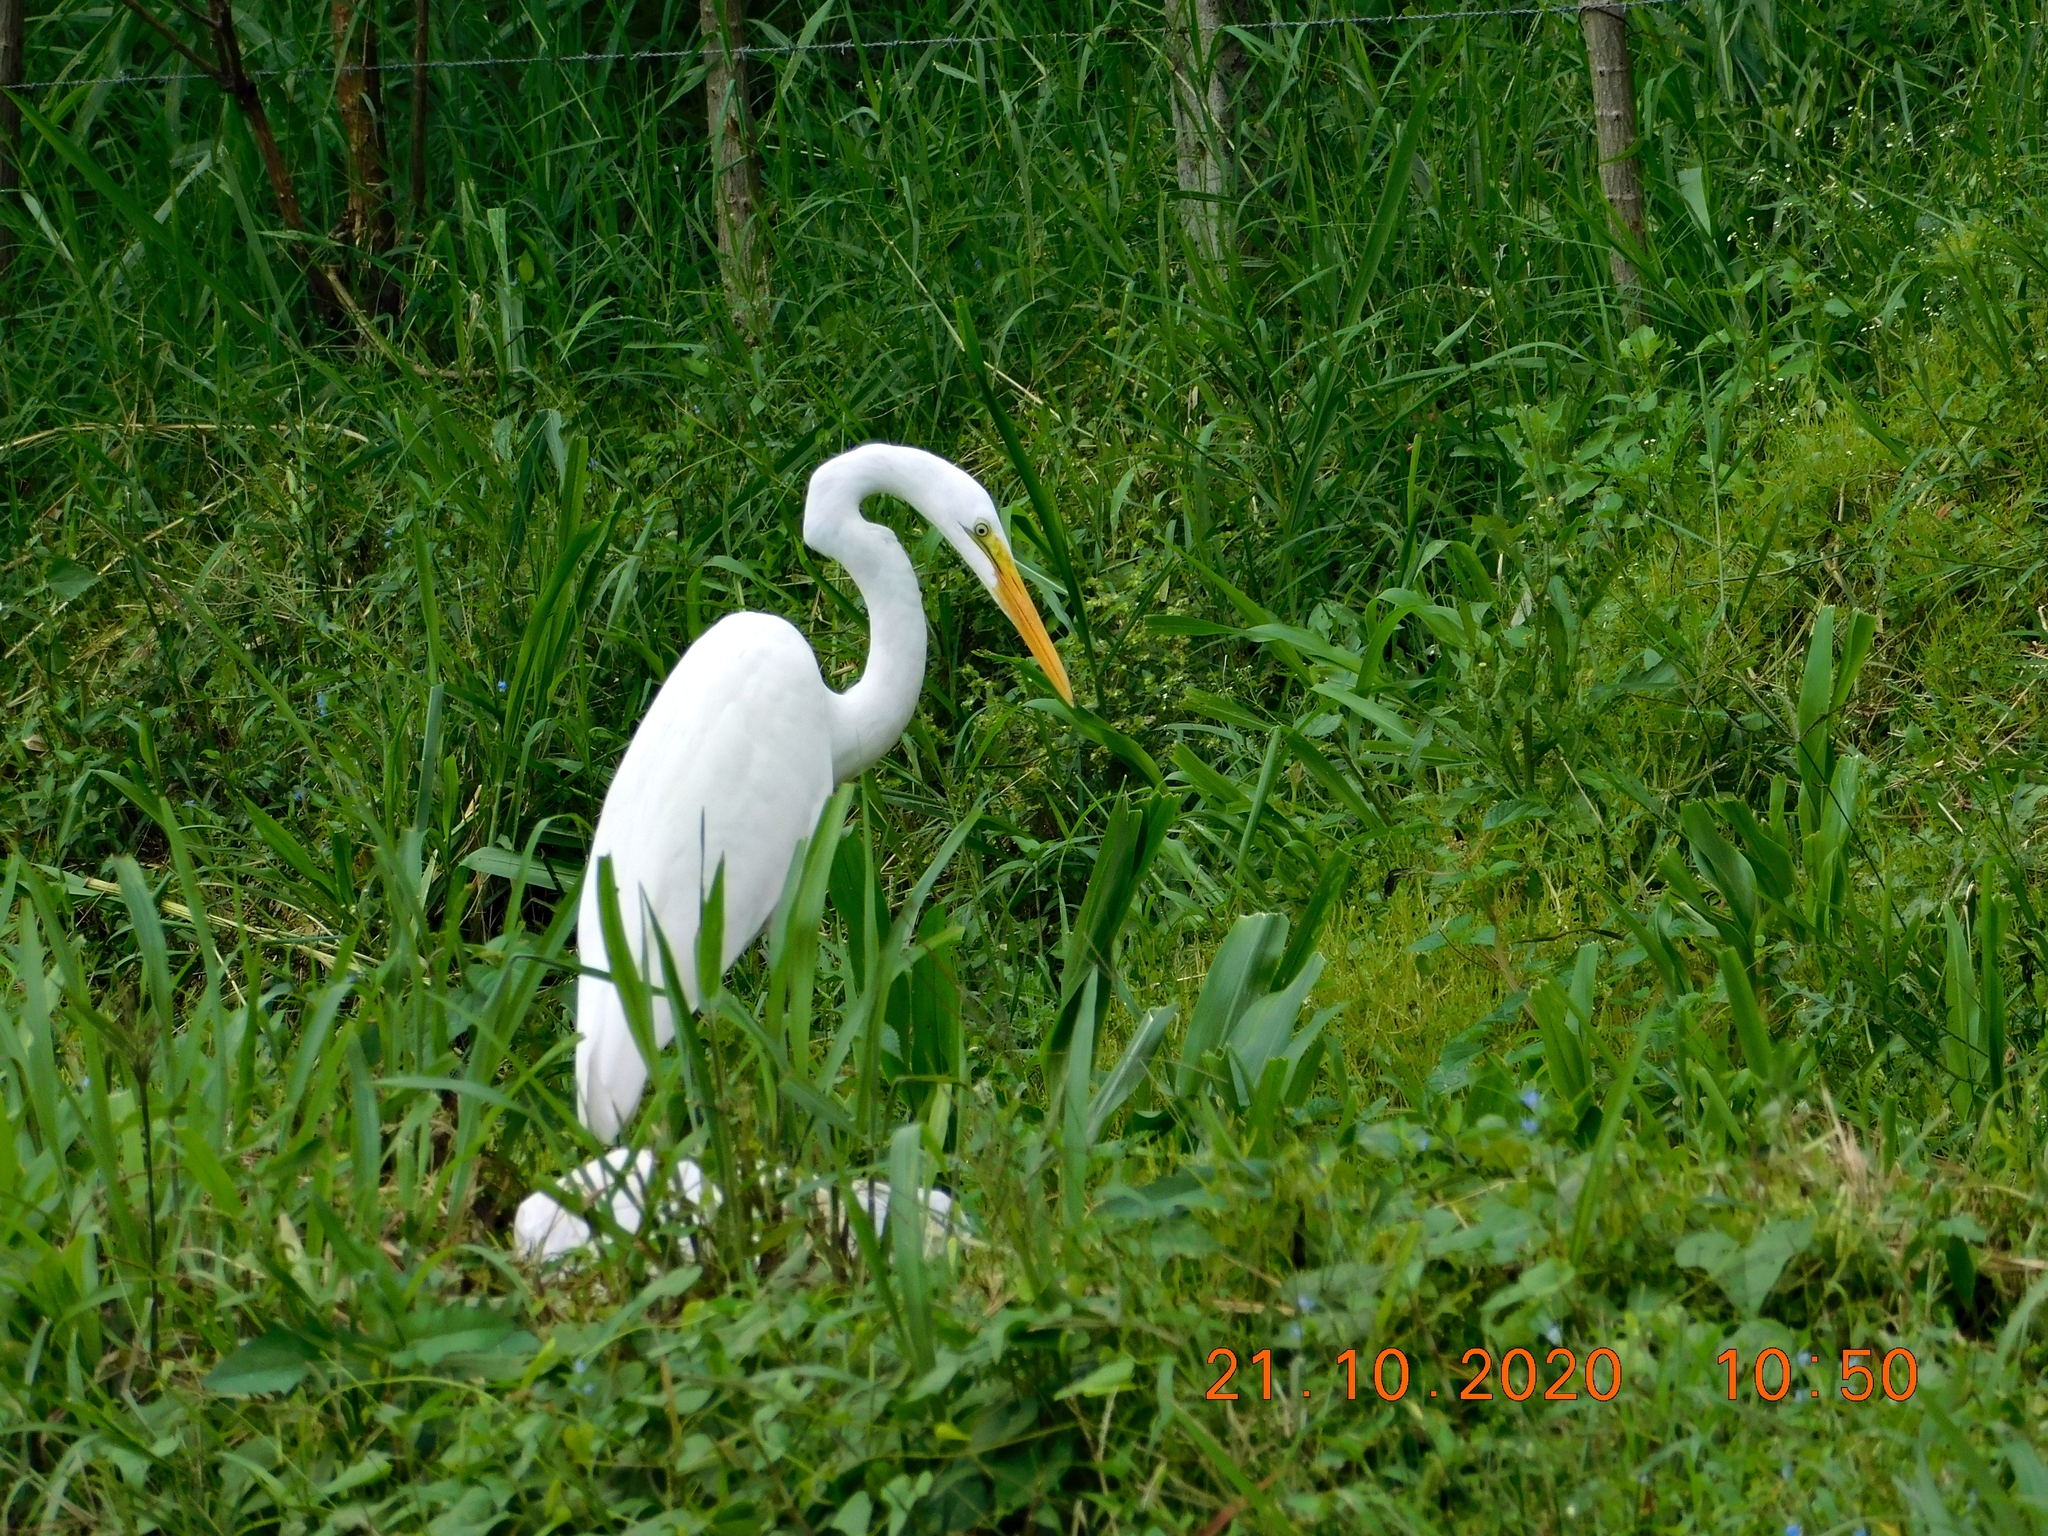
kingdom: Animalia
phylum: Chordata
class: Aves
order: Pelecaniformes
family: Ardeidae
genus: Ardea
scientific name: Ardea alba
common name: Great egret
